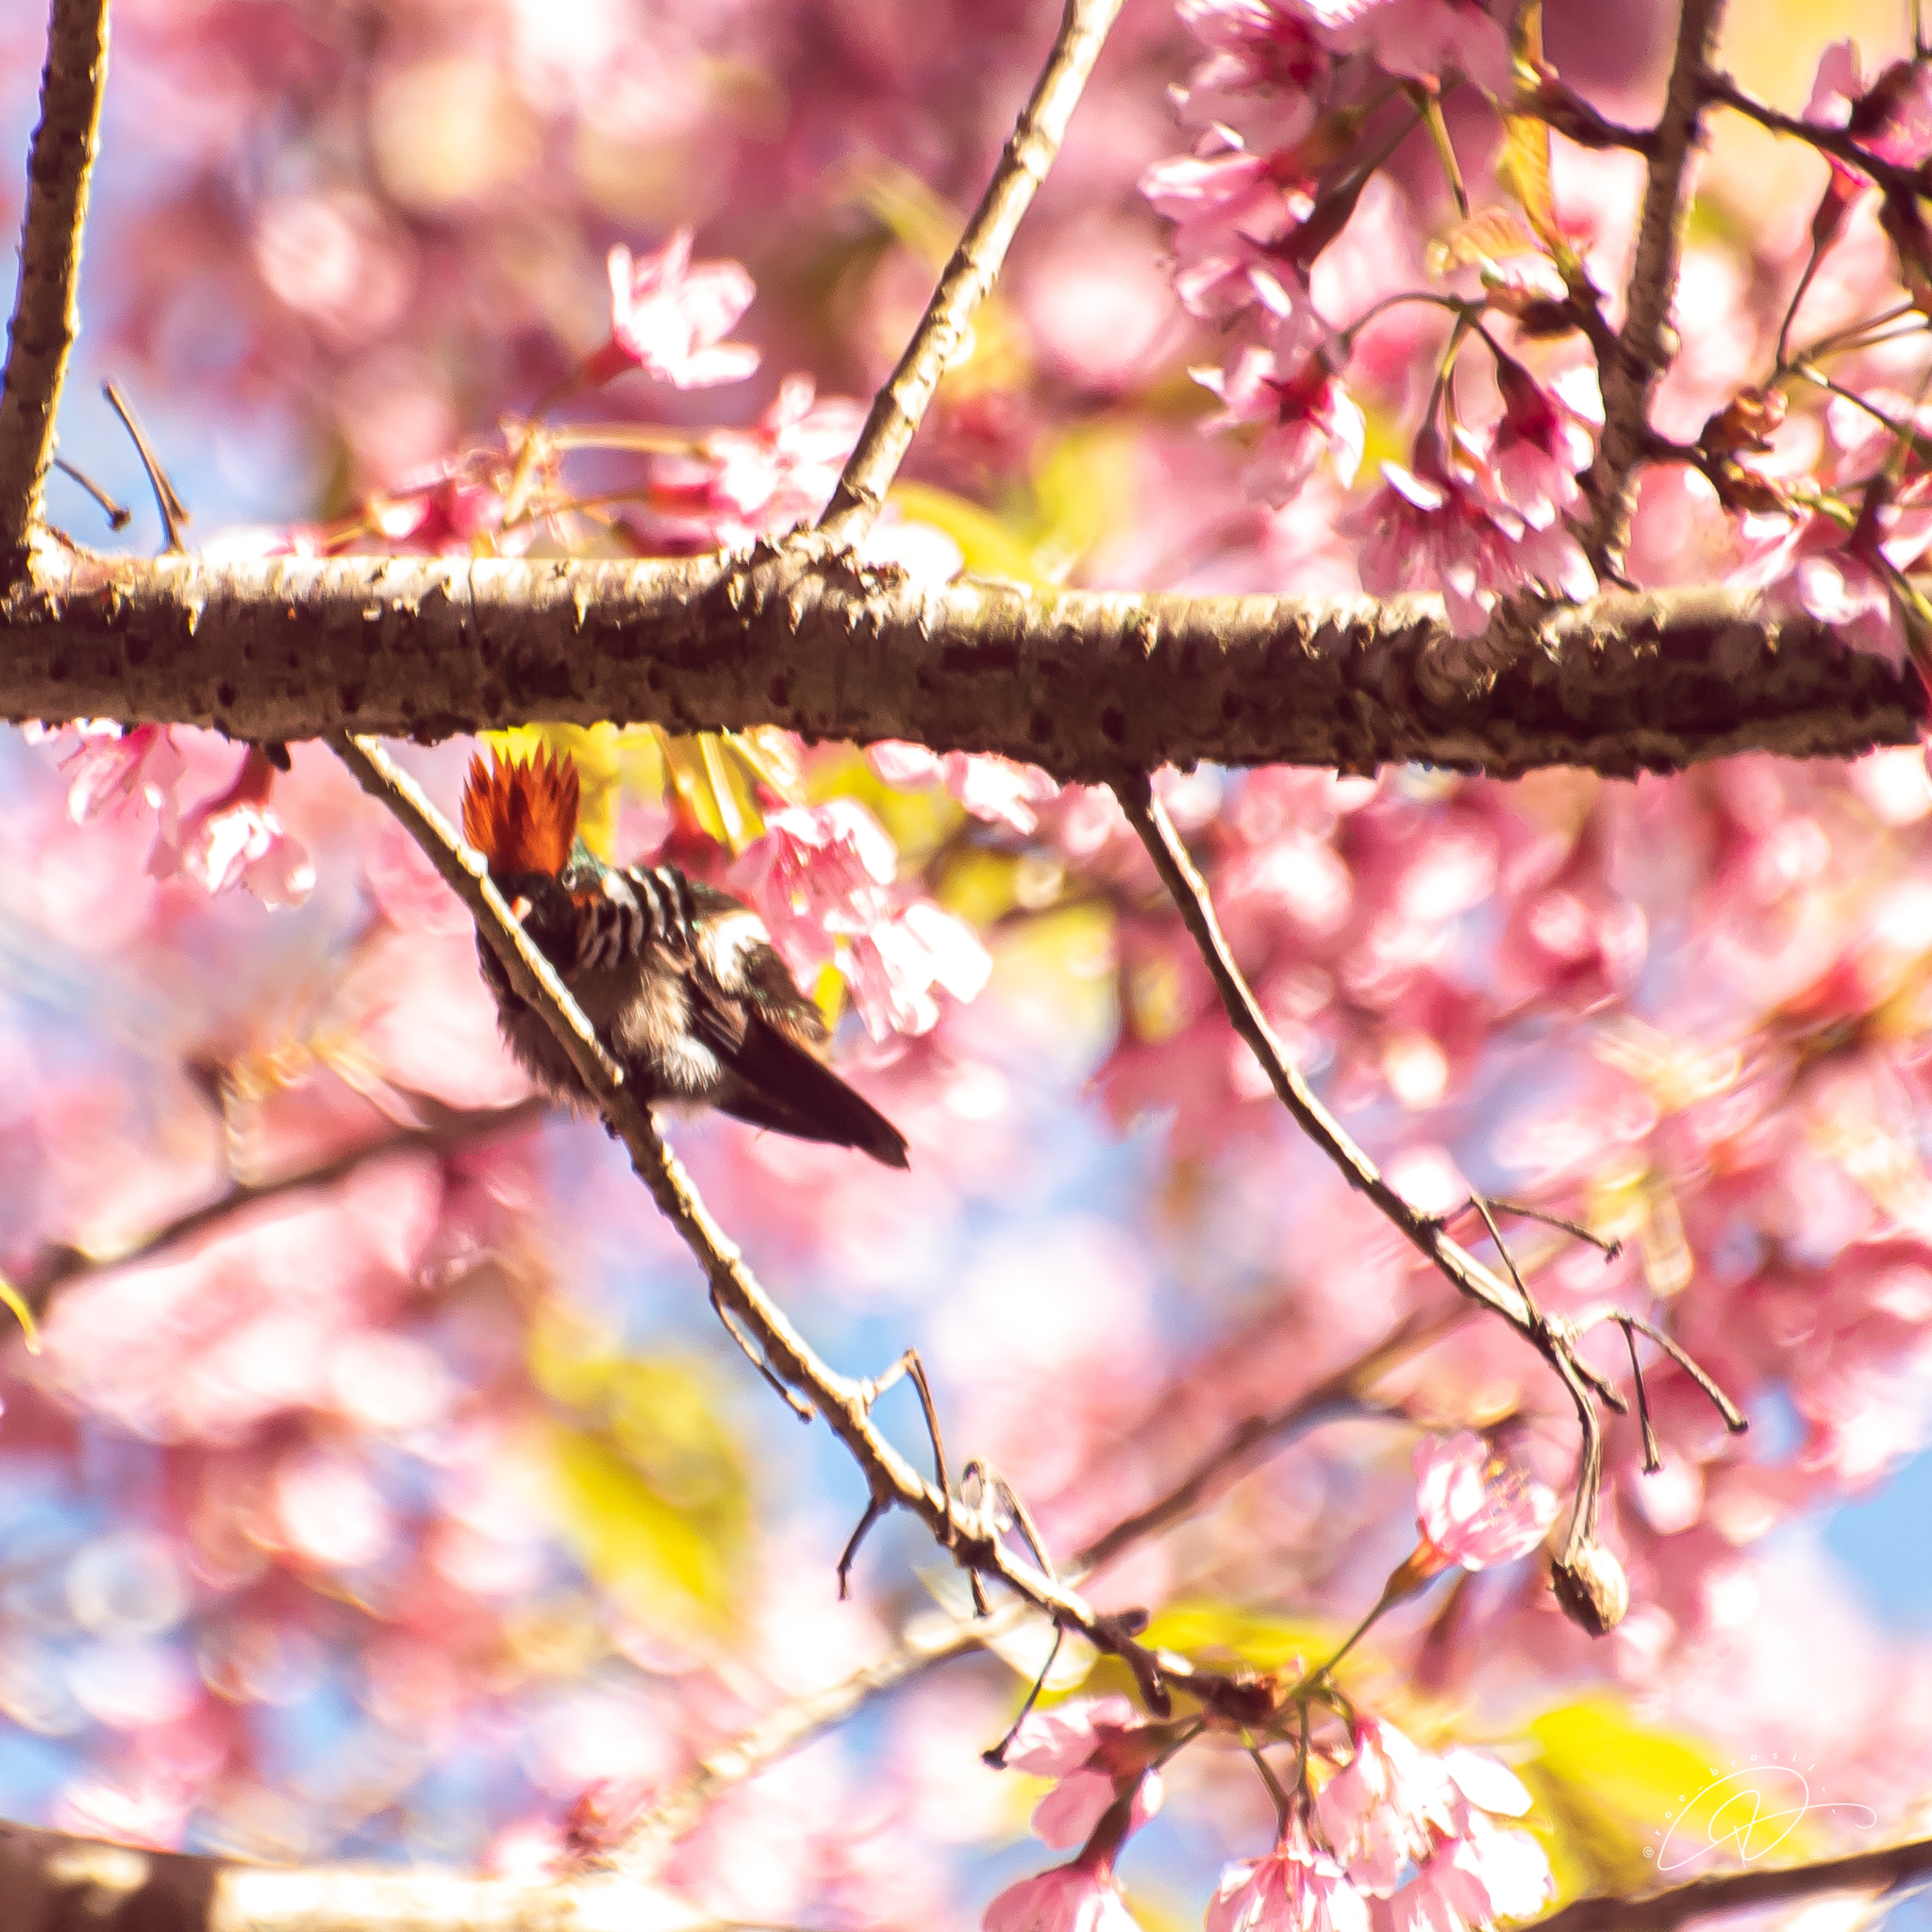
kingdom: Animalia
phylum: Chordata
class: Aves
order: Apodiformes
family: Trochilidae
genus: Lophornis
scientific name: Lophornis magnificus
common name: Frilled coquette
